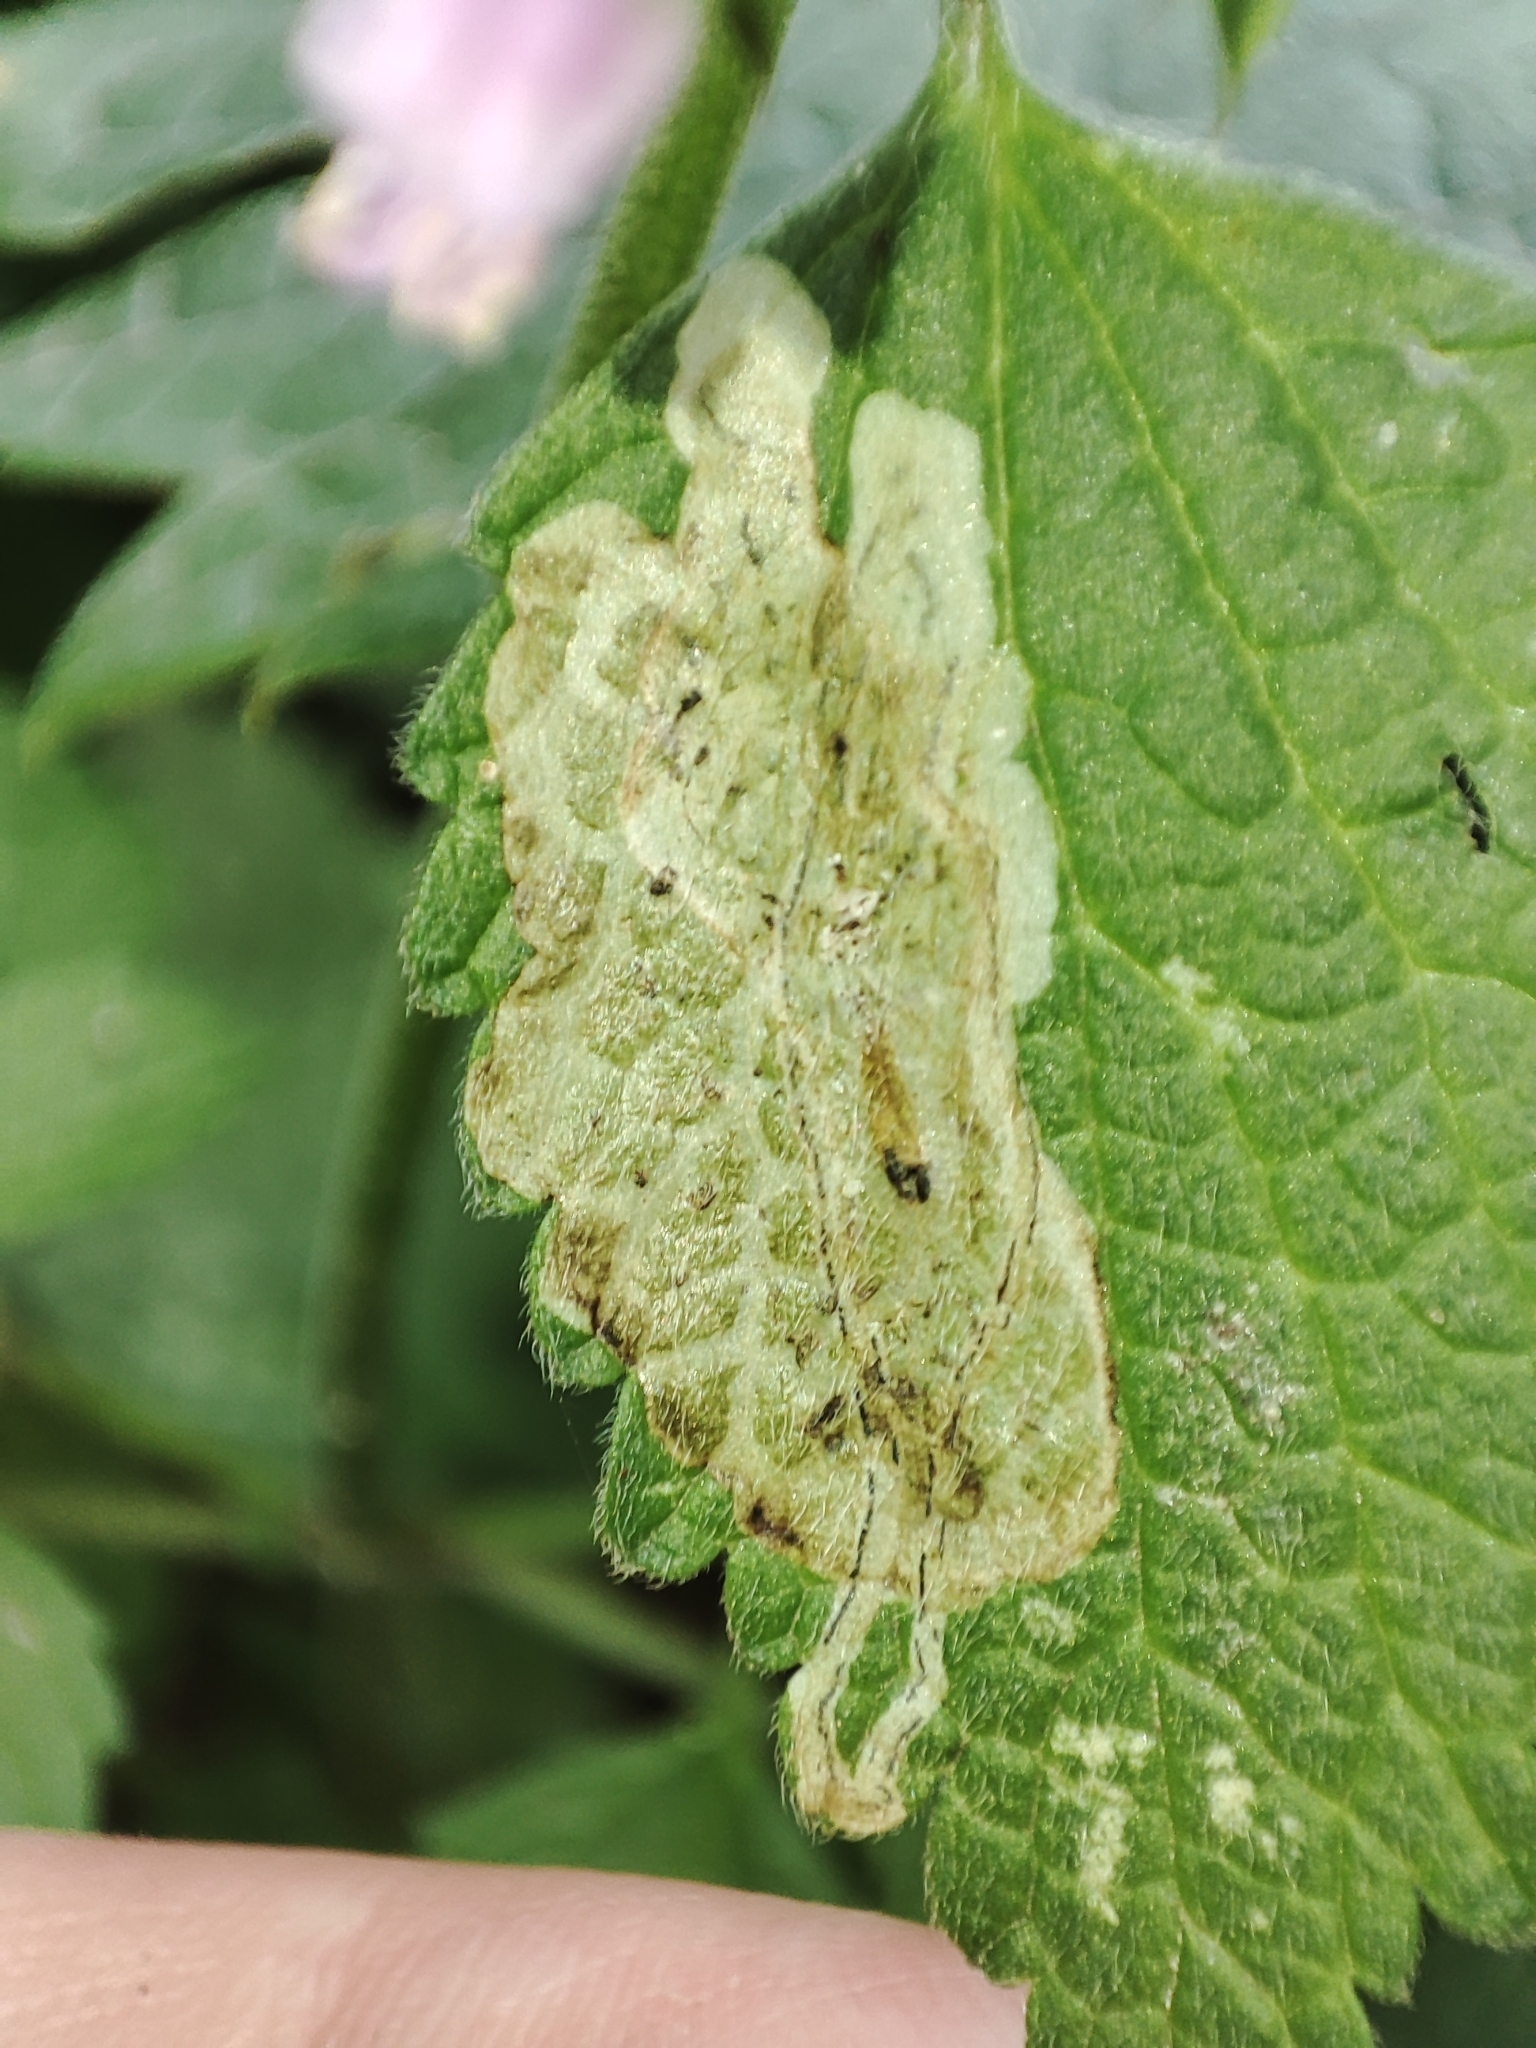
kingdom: Plantae
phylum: Tracheophyta
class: Magnoliopsida
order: Lamiales
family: Lamiaceae
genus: Ballota
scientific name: Ballota nigra
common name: Black horehound
